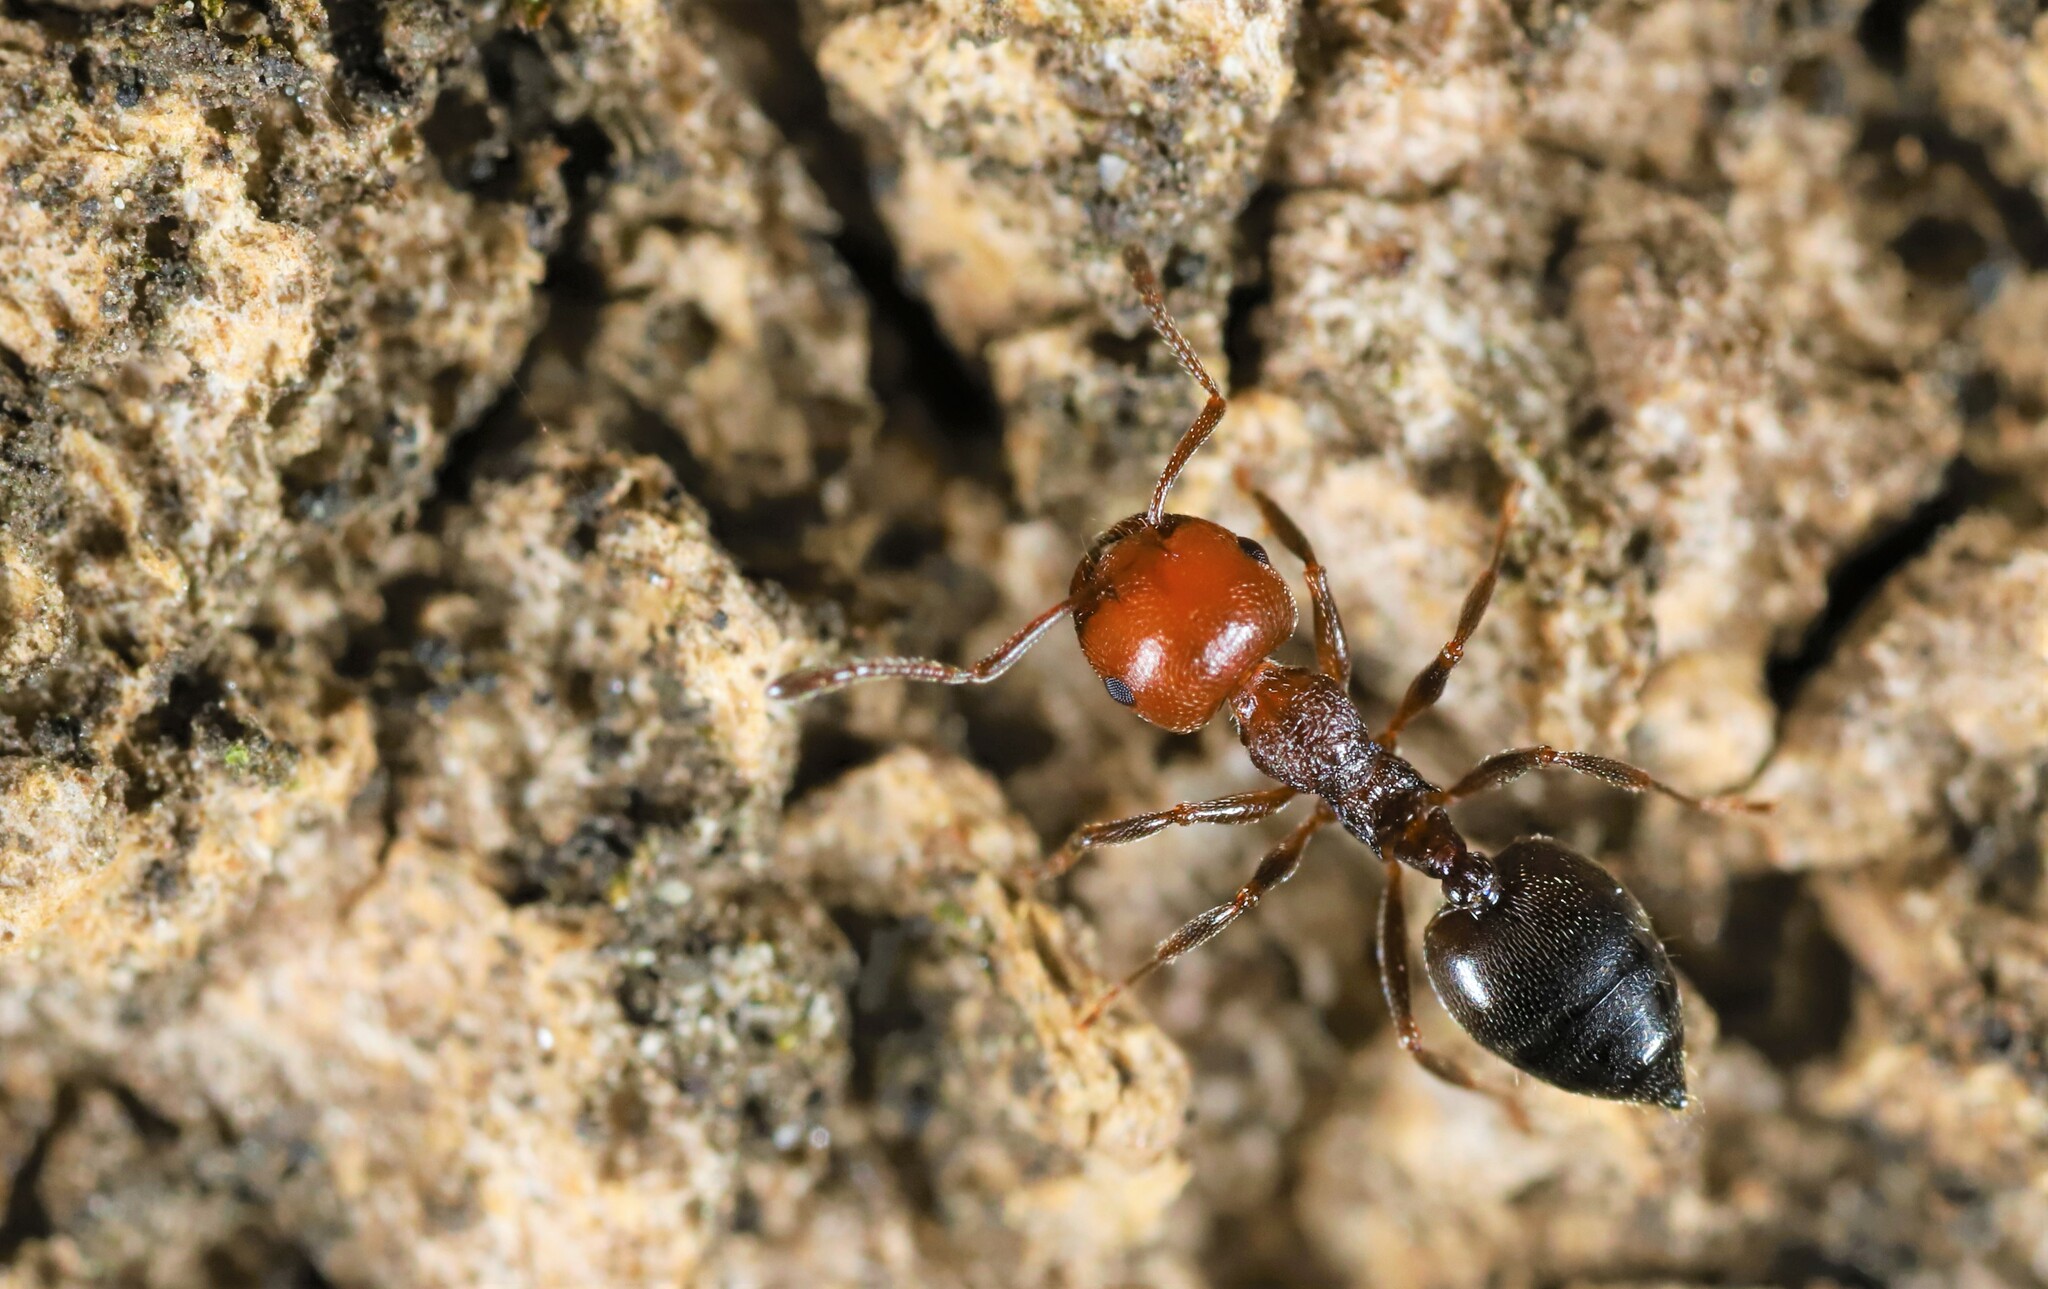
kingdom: Animalia
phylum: Arthropoda
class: Insecta
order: Hymenoptera
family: Formicidae
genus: Crematogaster
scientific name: Crematogaster scutellaris
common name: Fourmi du liège
